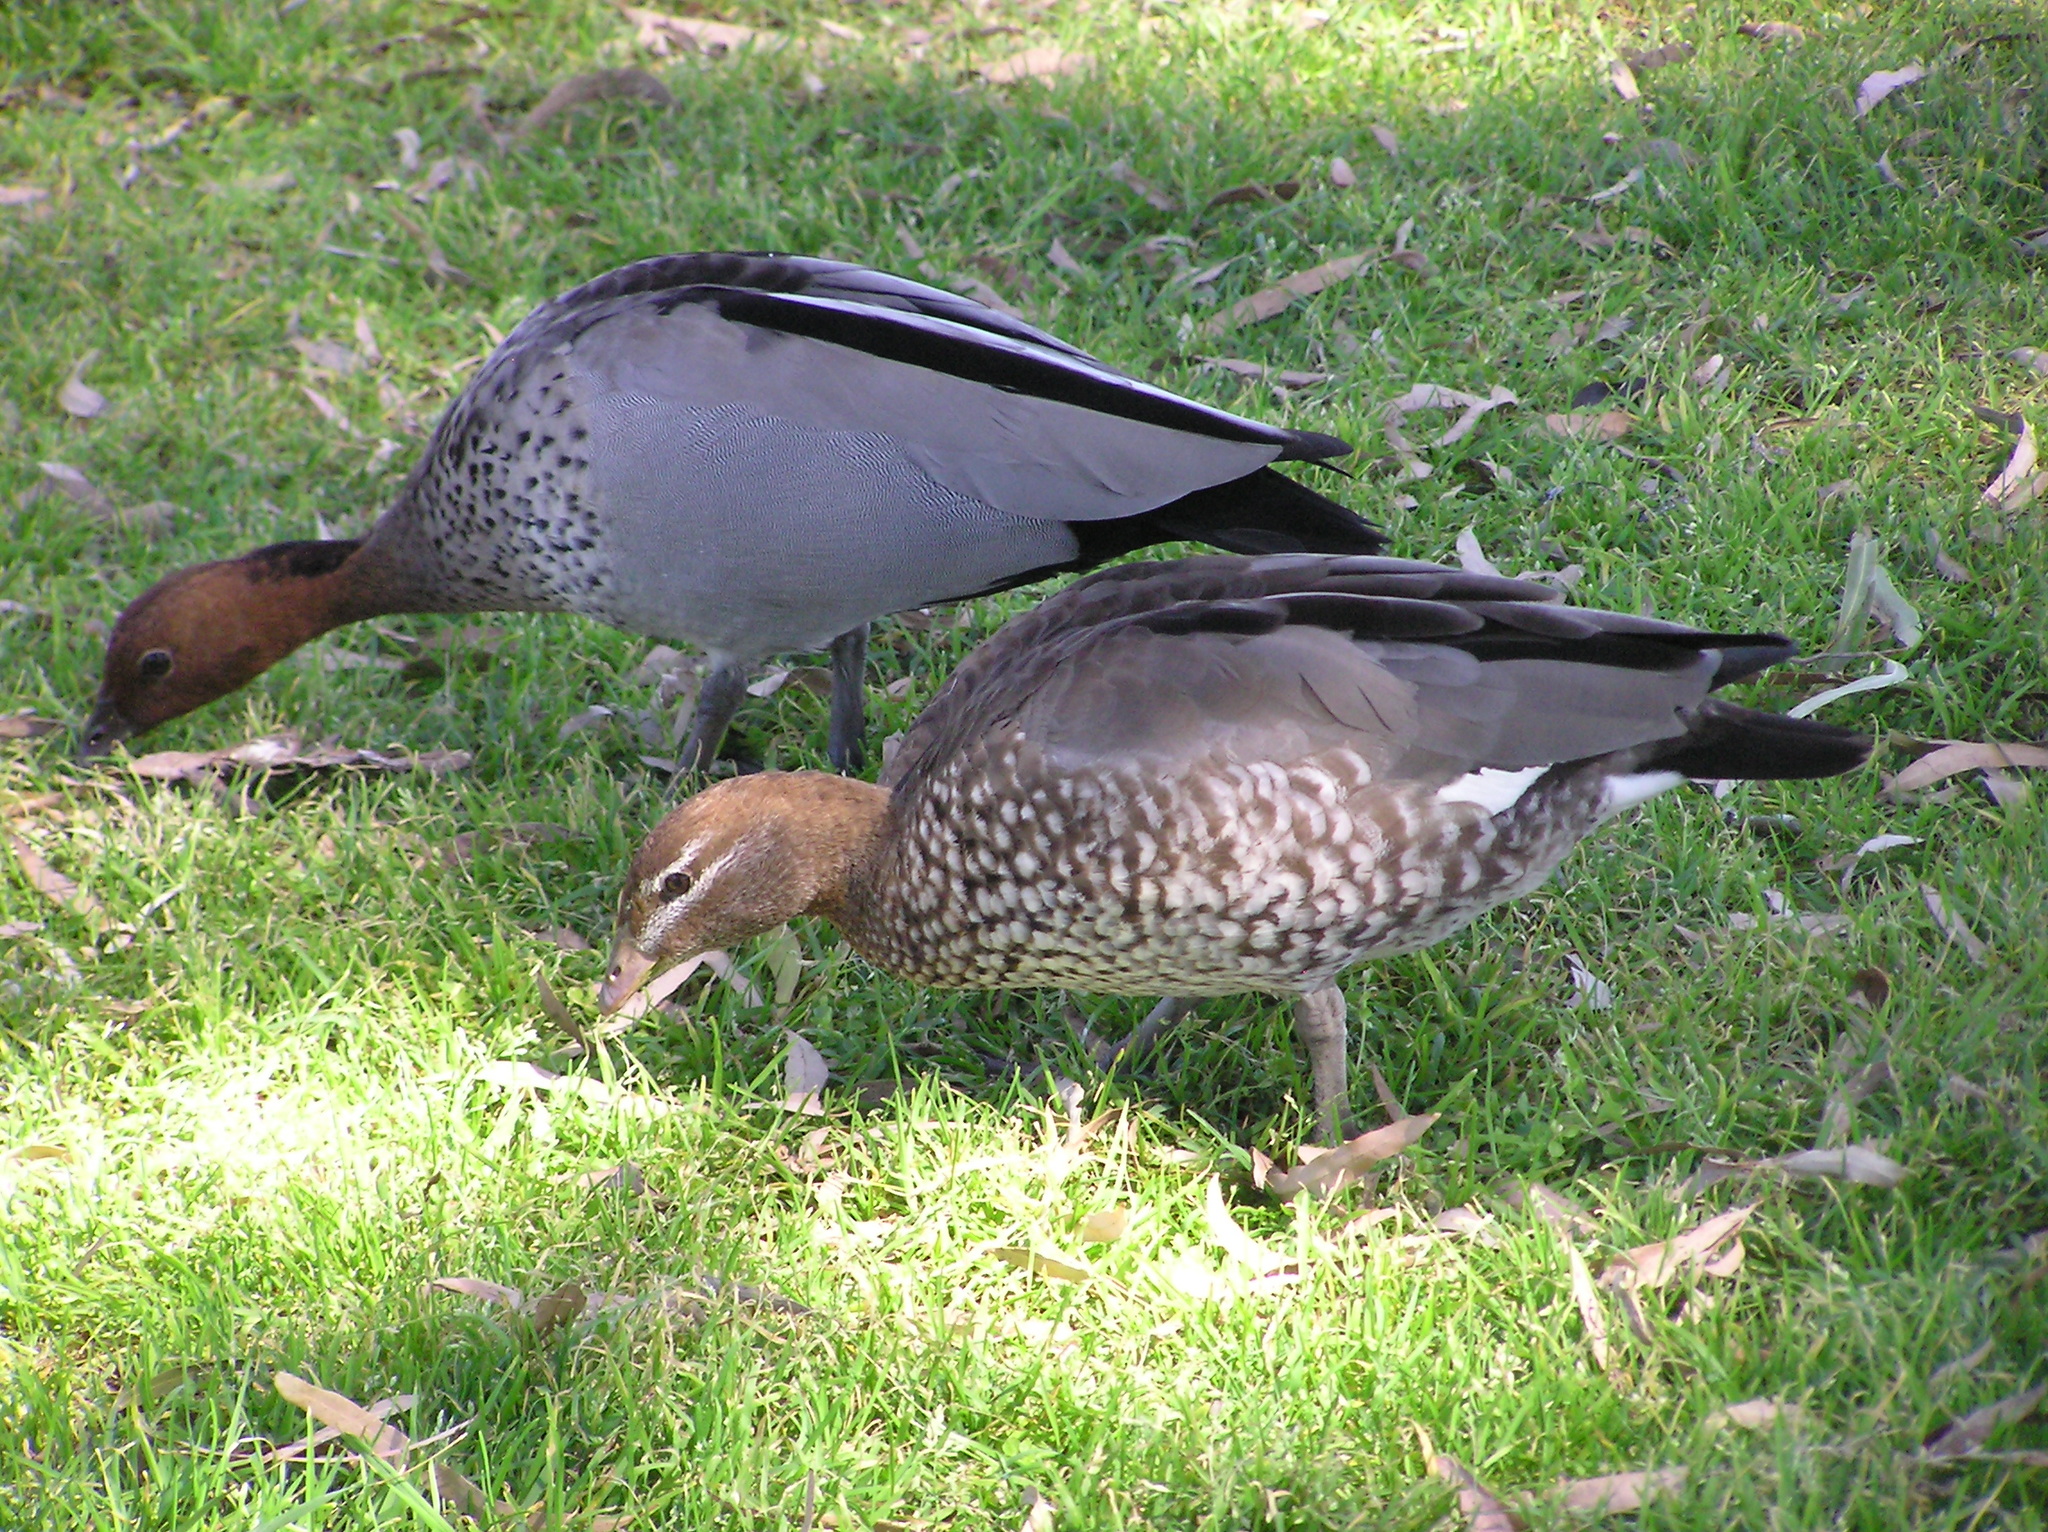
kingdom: Animalia
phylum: Chordata
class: Aves
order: Anseriformes
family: Anatidae
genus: Chenonetta
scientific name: Chenonetta jubata
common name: Maned duck
